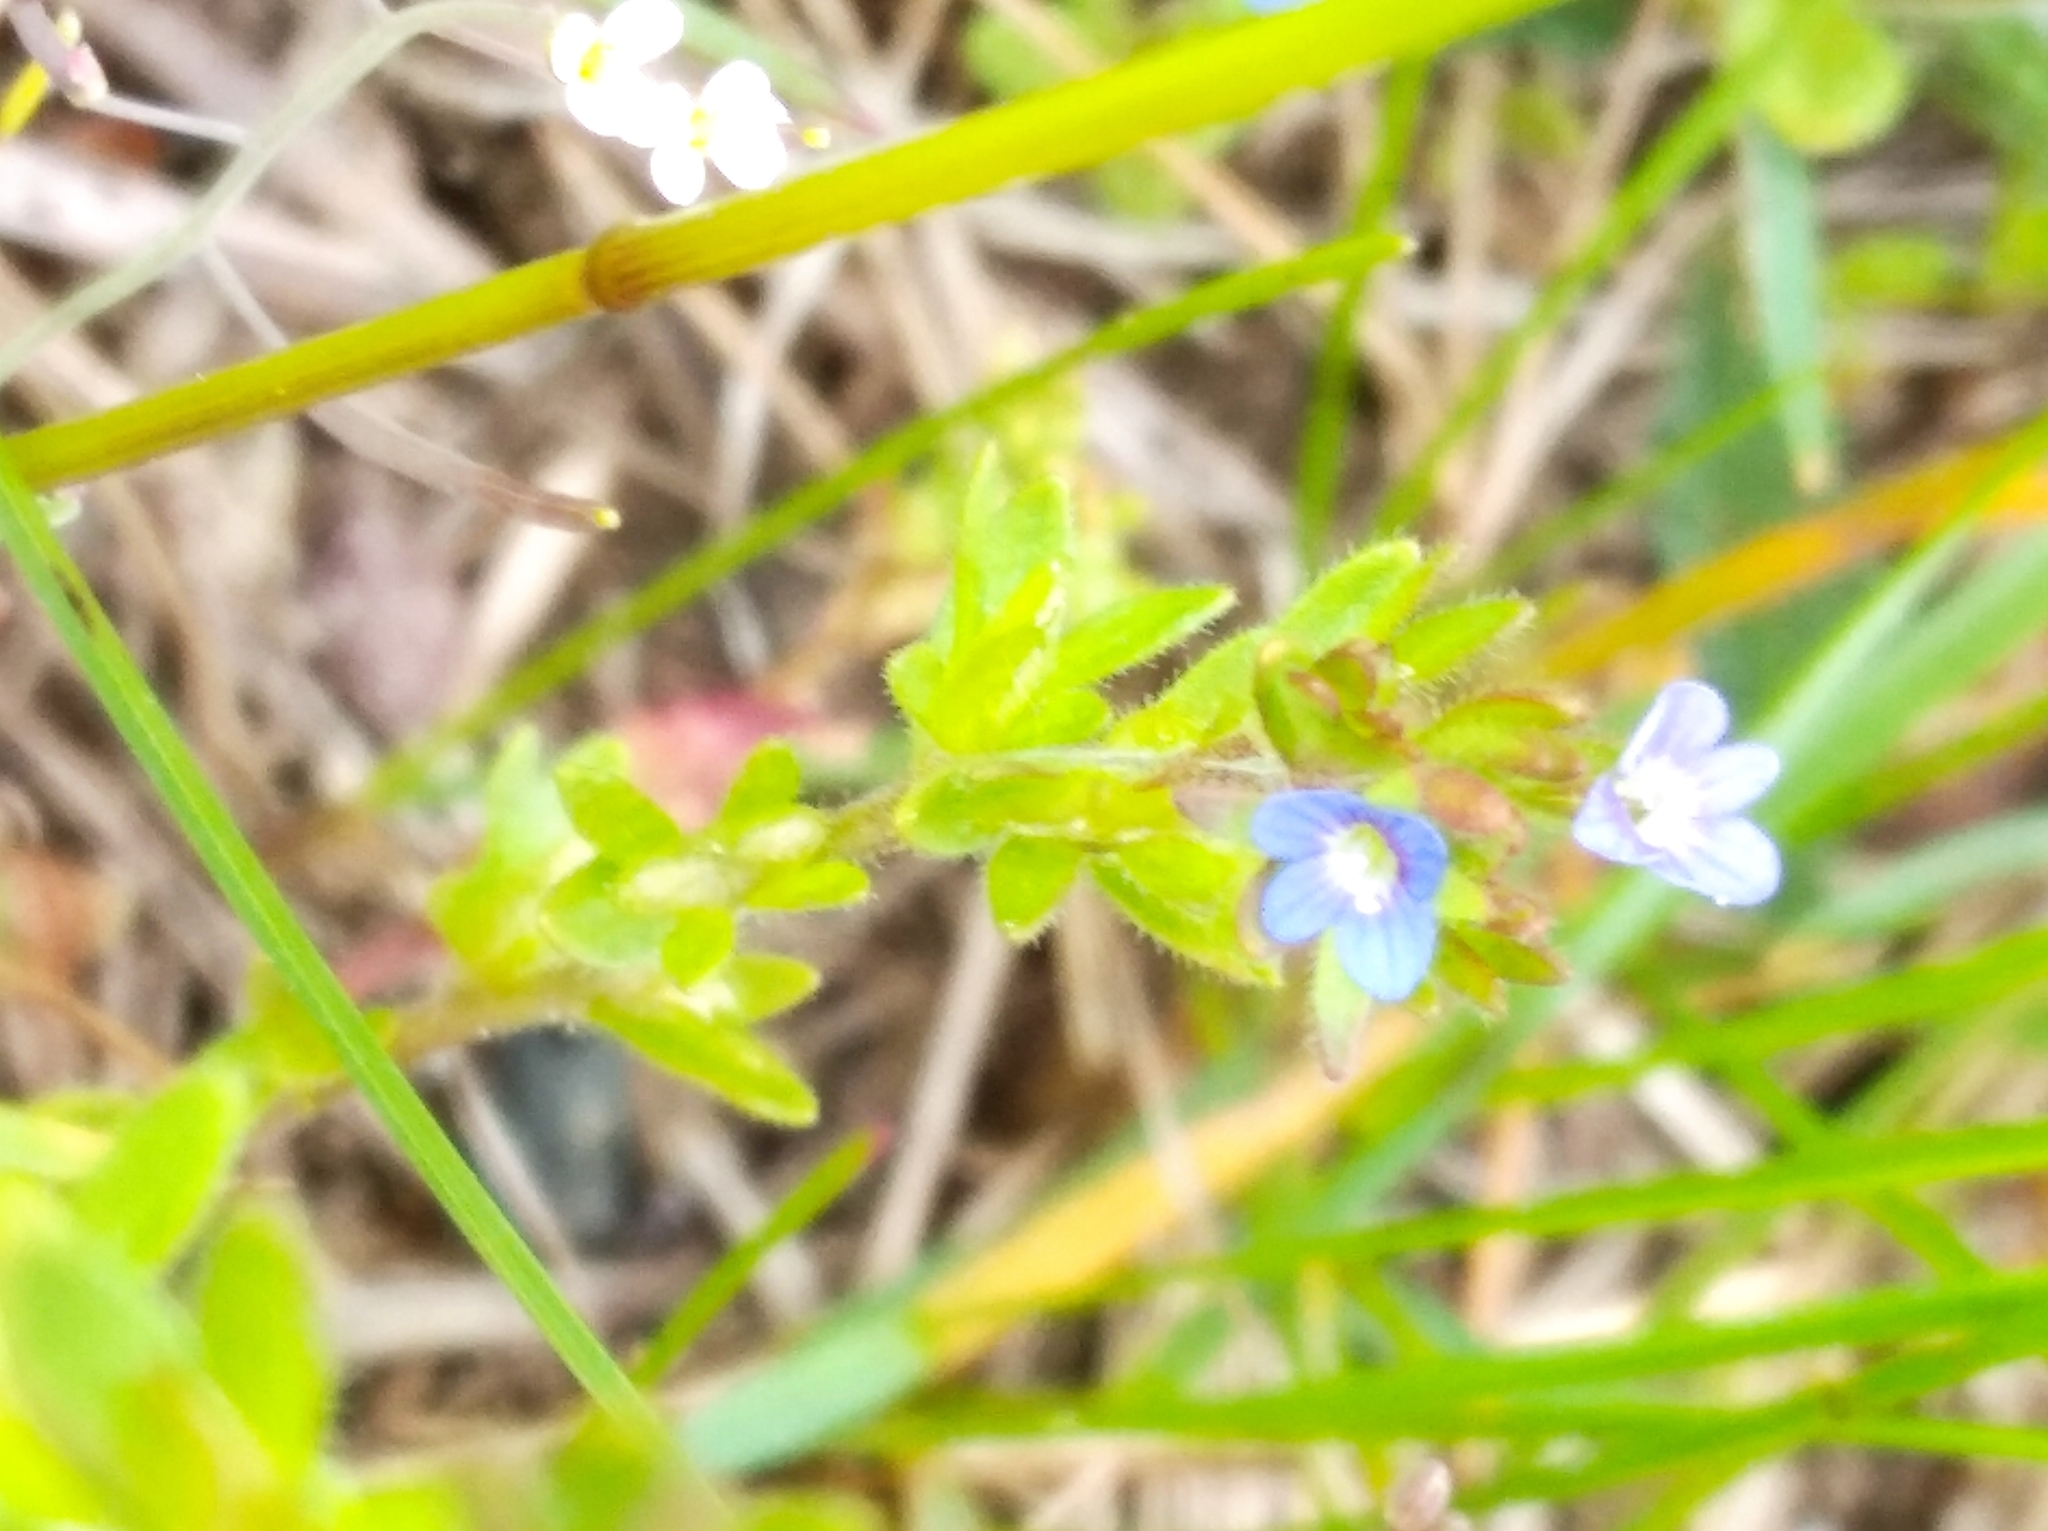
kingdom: Plantae
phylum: Tracheophyta
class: Magnoliopsida
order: Lamiales
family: Plantaginaceae
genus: Veronica
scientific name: Veronica arvensis
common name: Corn speedwell
